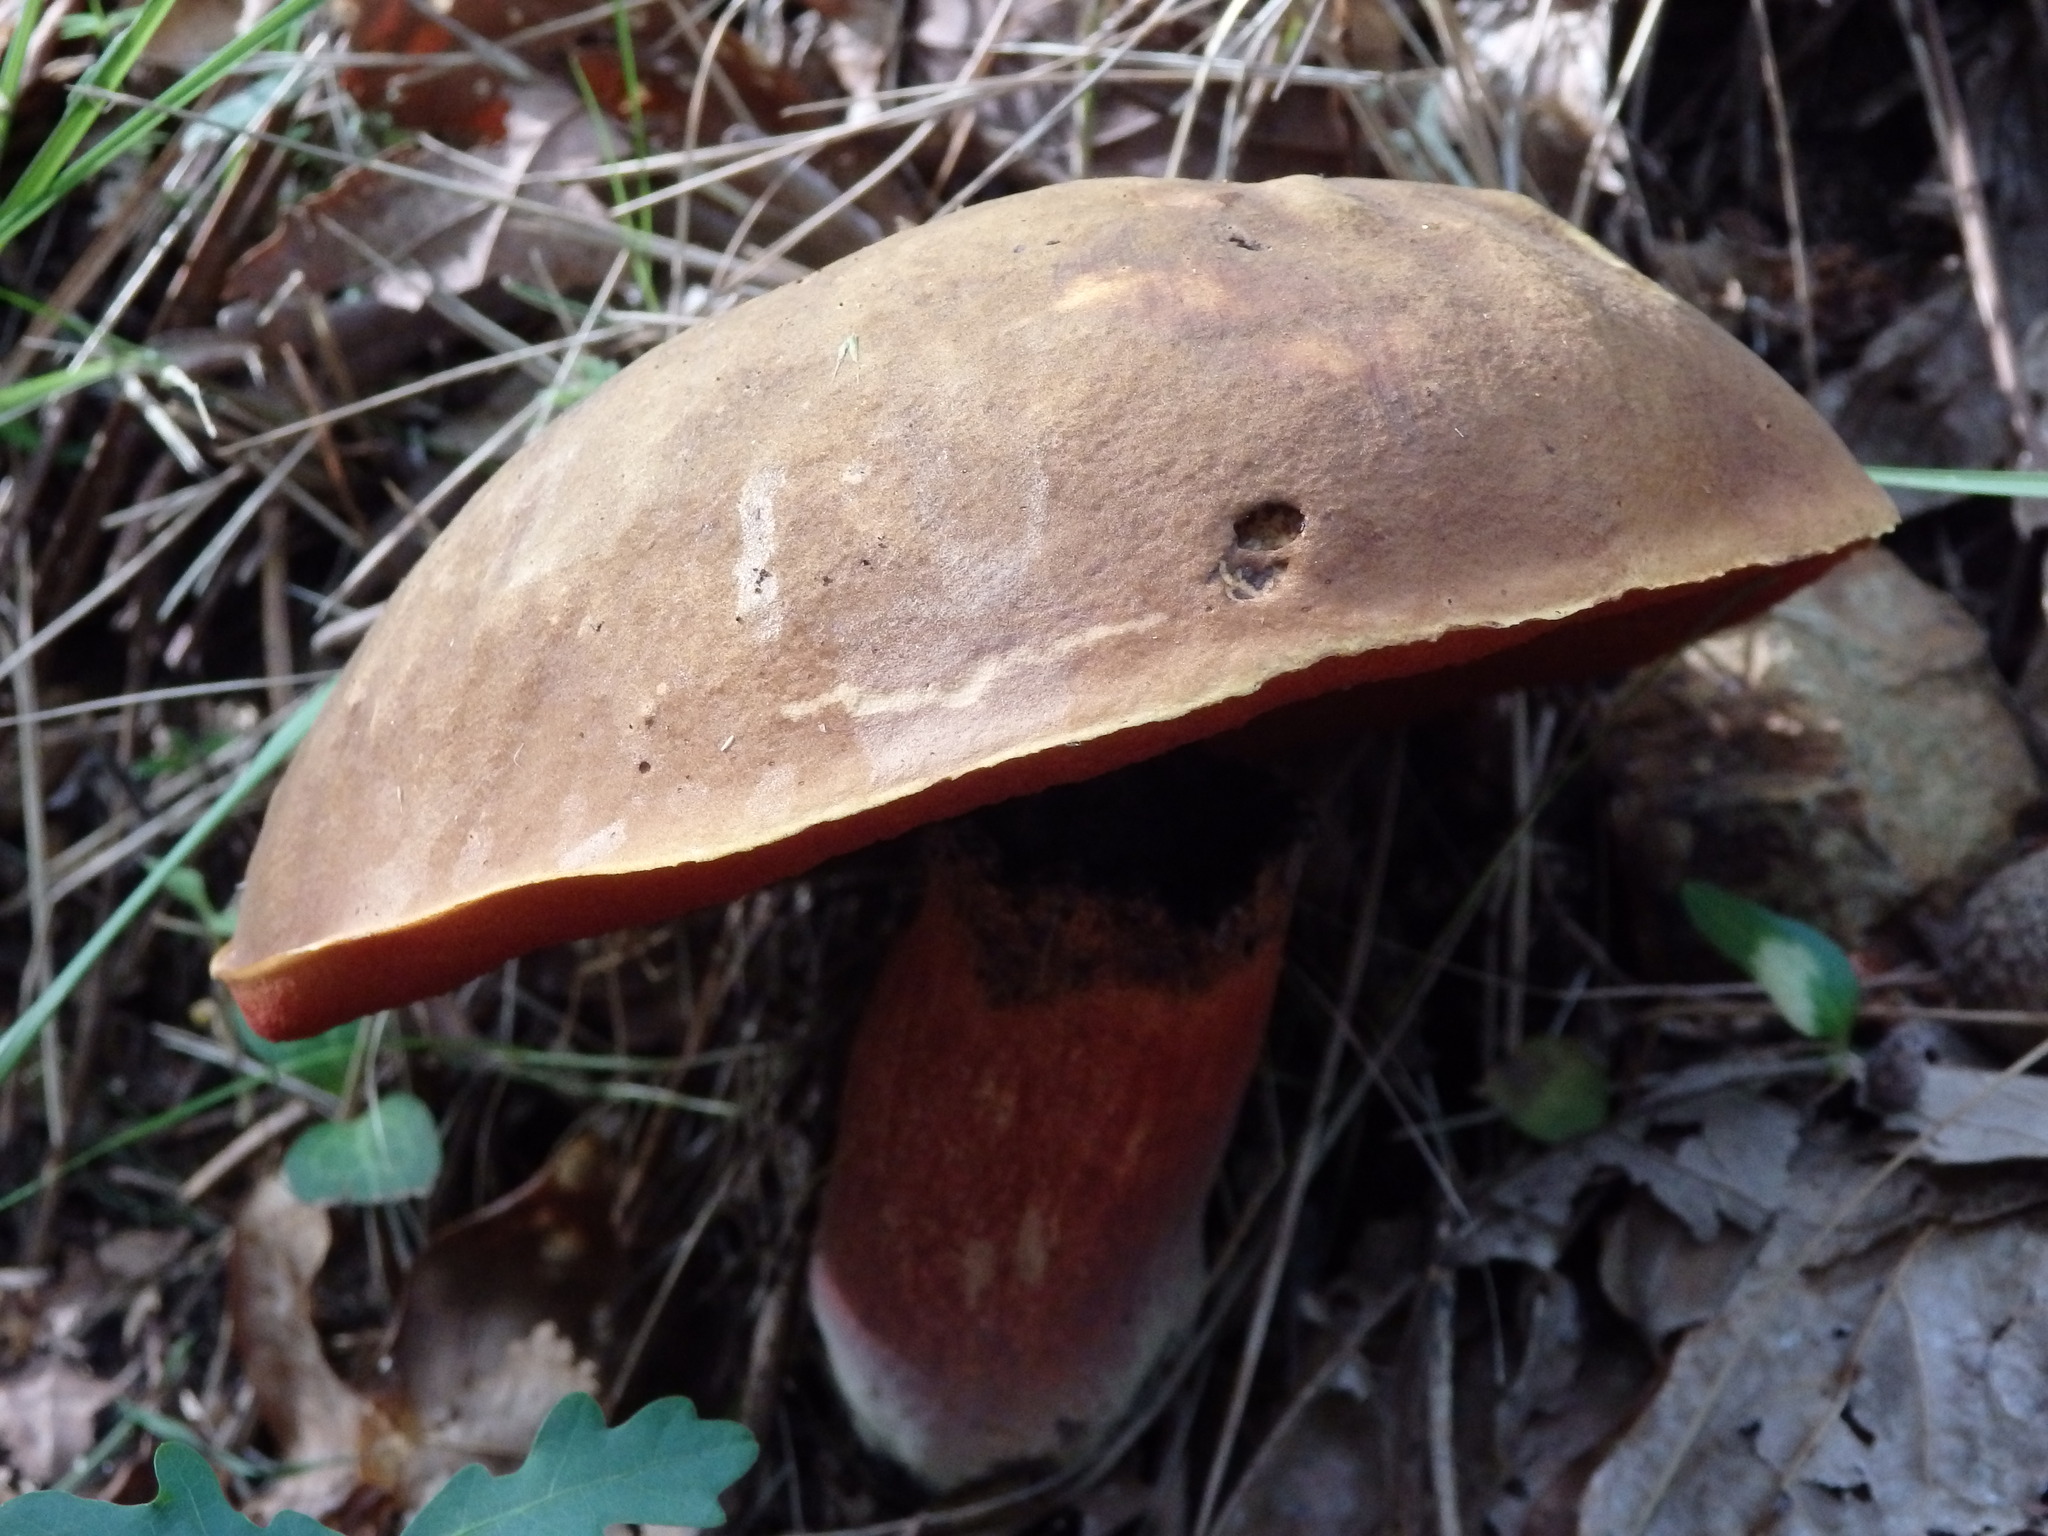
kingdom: Fungi
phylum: Basidiomycota
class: Agaricomycetes
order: Boletales
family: Boletaceae
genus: Neoboletus
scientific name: Neoboletus luridiformis
